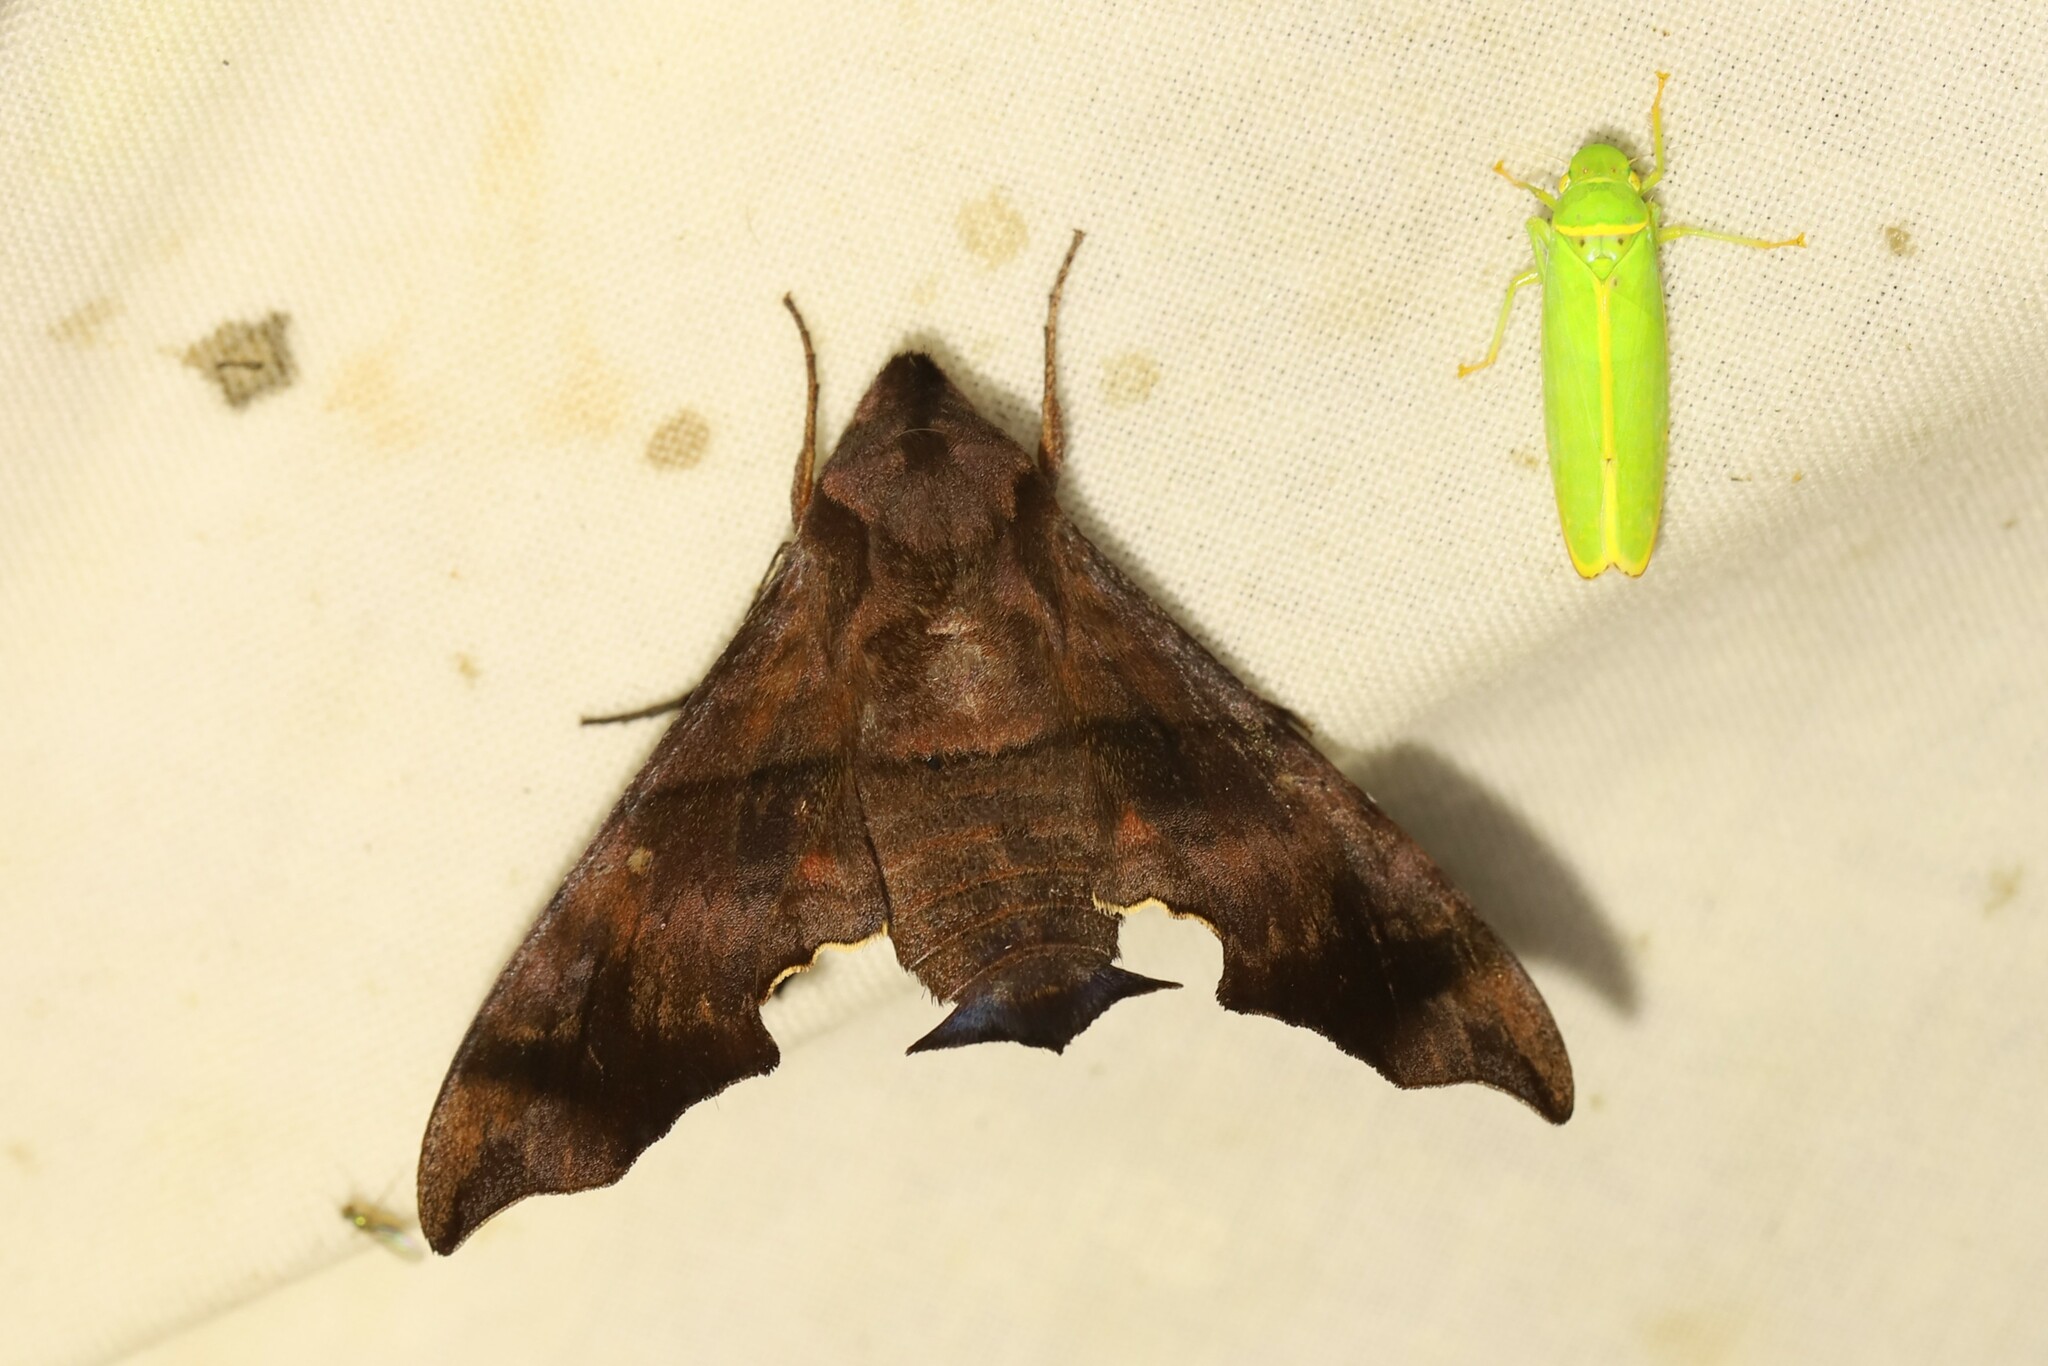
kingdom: Animalia
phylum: Arthropoda
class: Insecta
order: Lepidoptera
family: Sphingidae
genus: Perigonia
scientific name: Perigonia stulta
